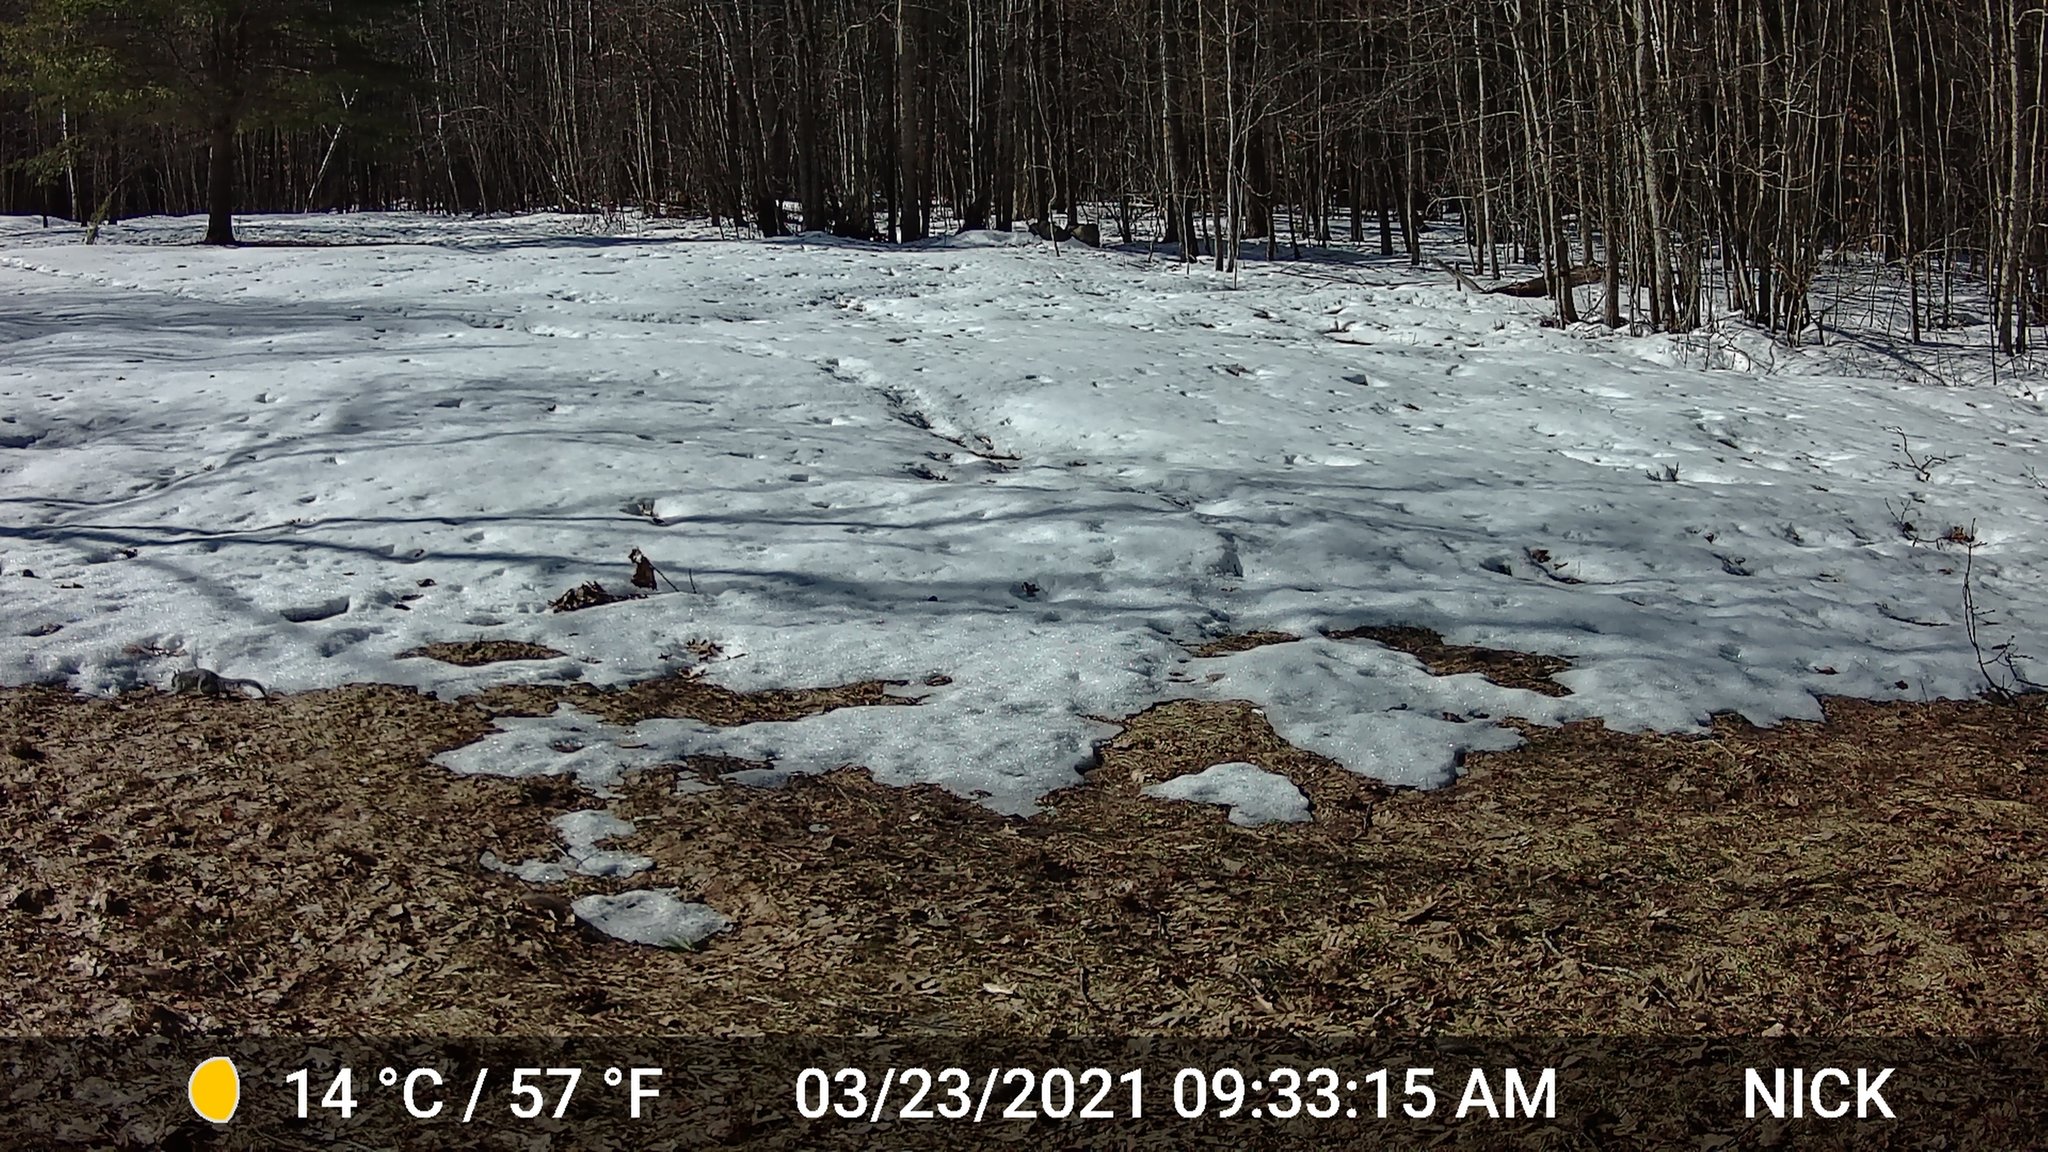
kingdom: Animalia
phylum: Chordata
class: Mammalia
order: Rodentia
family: Sciuridae
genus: Sciurus
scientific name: Sciurus carolinensis
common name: Eastern gray squirrel
